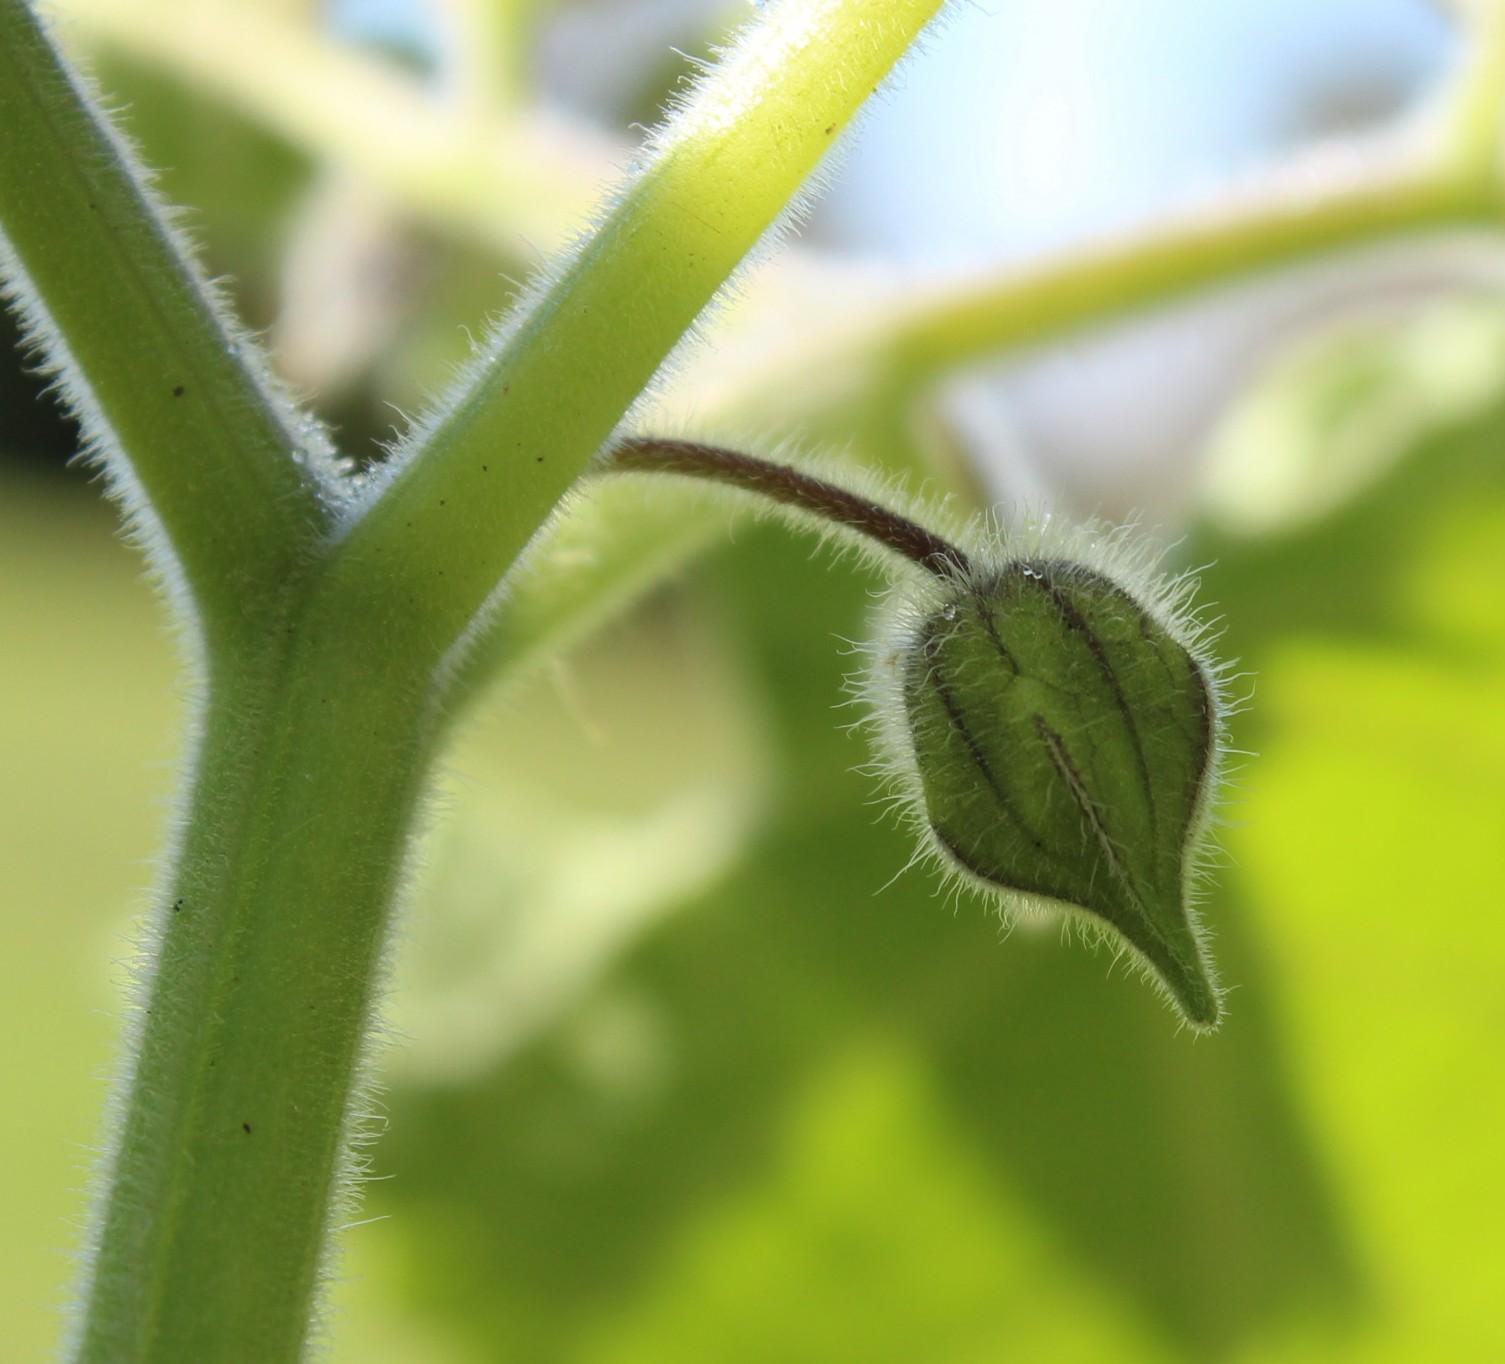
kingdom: Plantae
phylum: Tracheophyta
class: Magnoliopsida
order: Solanales
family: Solanaceae
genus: Physalis
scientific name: Physalis peruviana
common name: Cape-gooseberry
